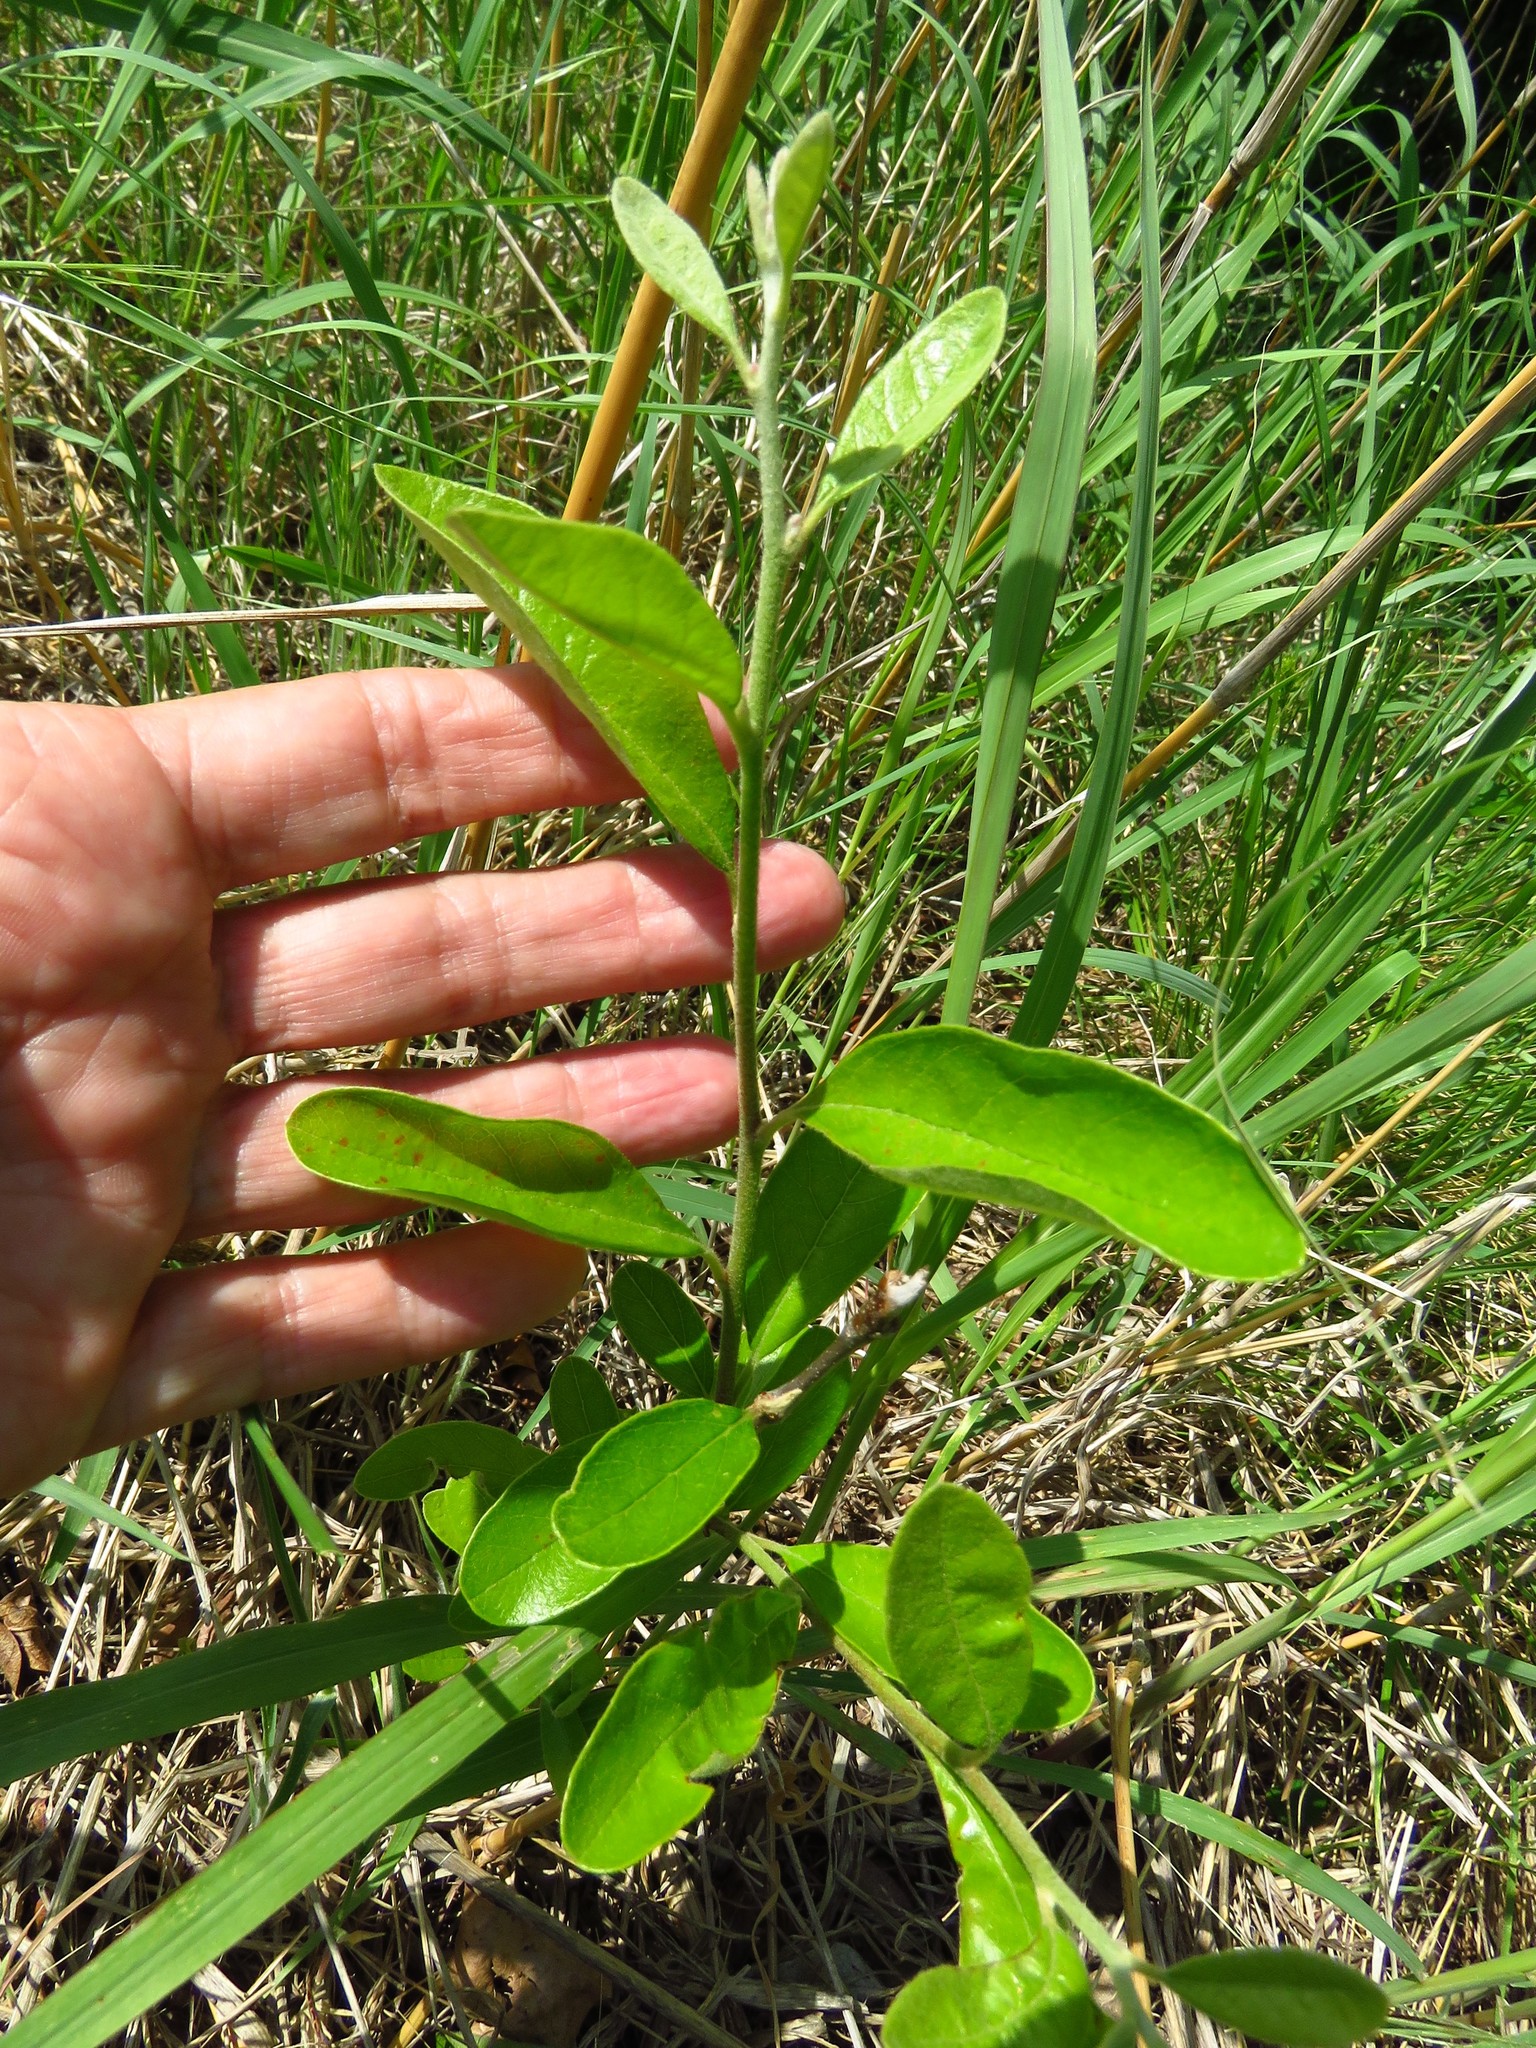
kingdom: Plantae
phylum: Tracheophyta
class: Magnoliopsida
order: Ericales
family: Sapotaceae
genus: Sideroxylon
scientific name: Sideroxylon lanuginosum
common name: Chittamwood
